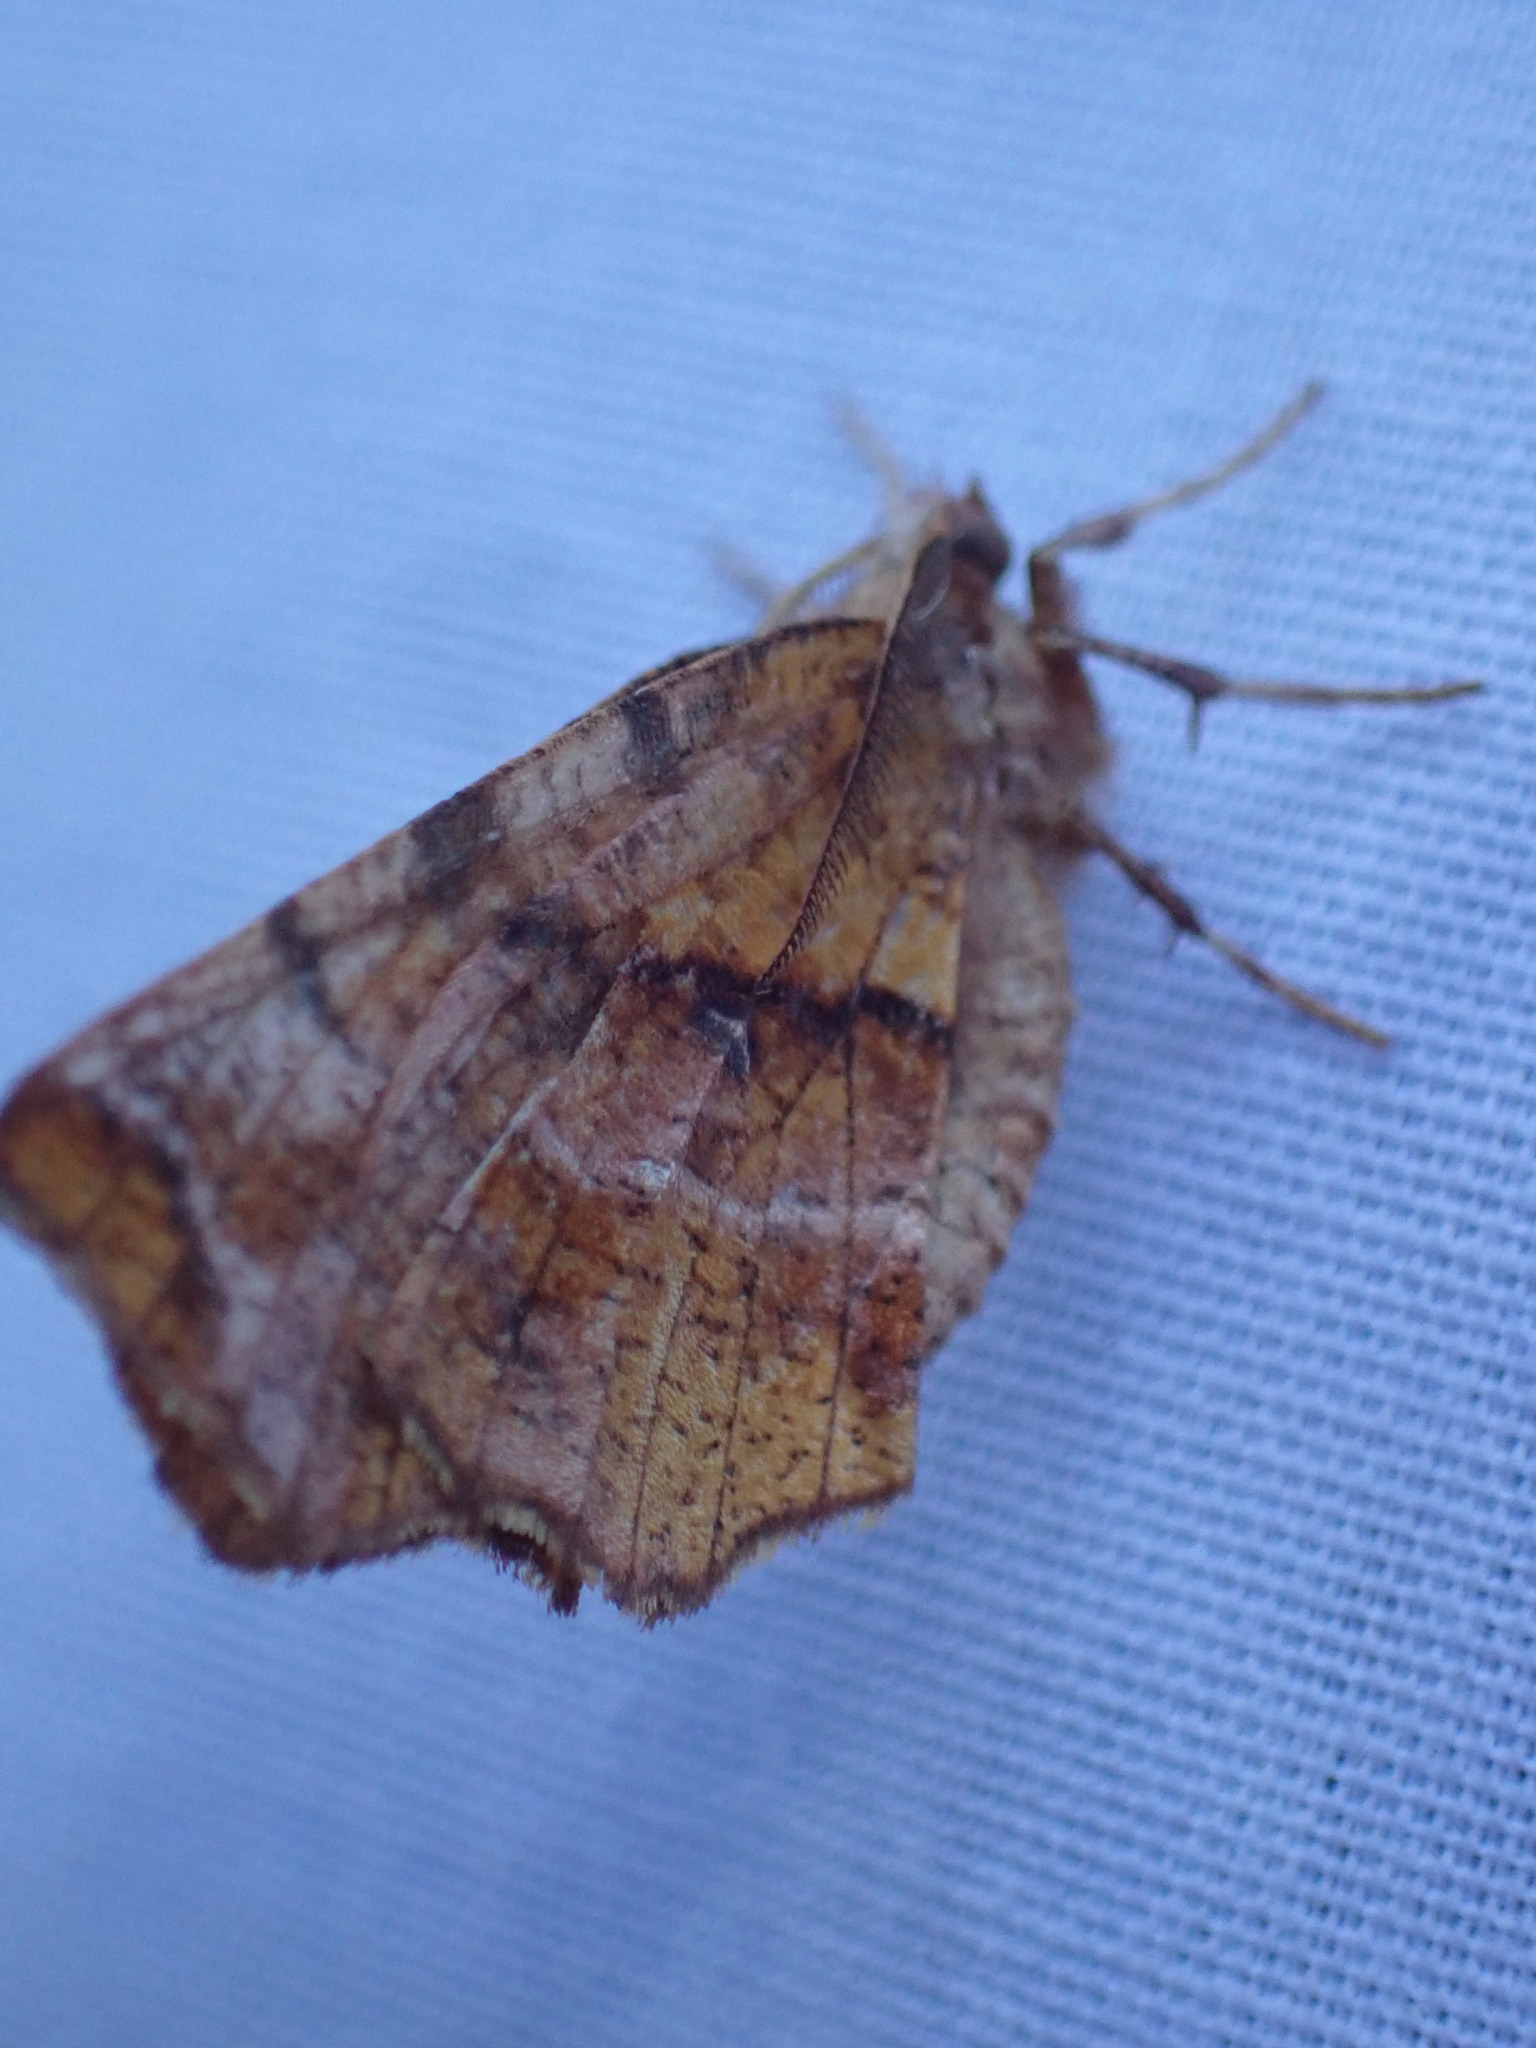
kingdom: Animalia
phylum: Arthropoda
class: Insecta
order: Lepidoptera
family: Geometridae
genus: Selenia
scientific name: Selenia alciphearia
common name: Brown-tipped thorn
